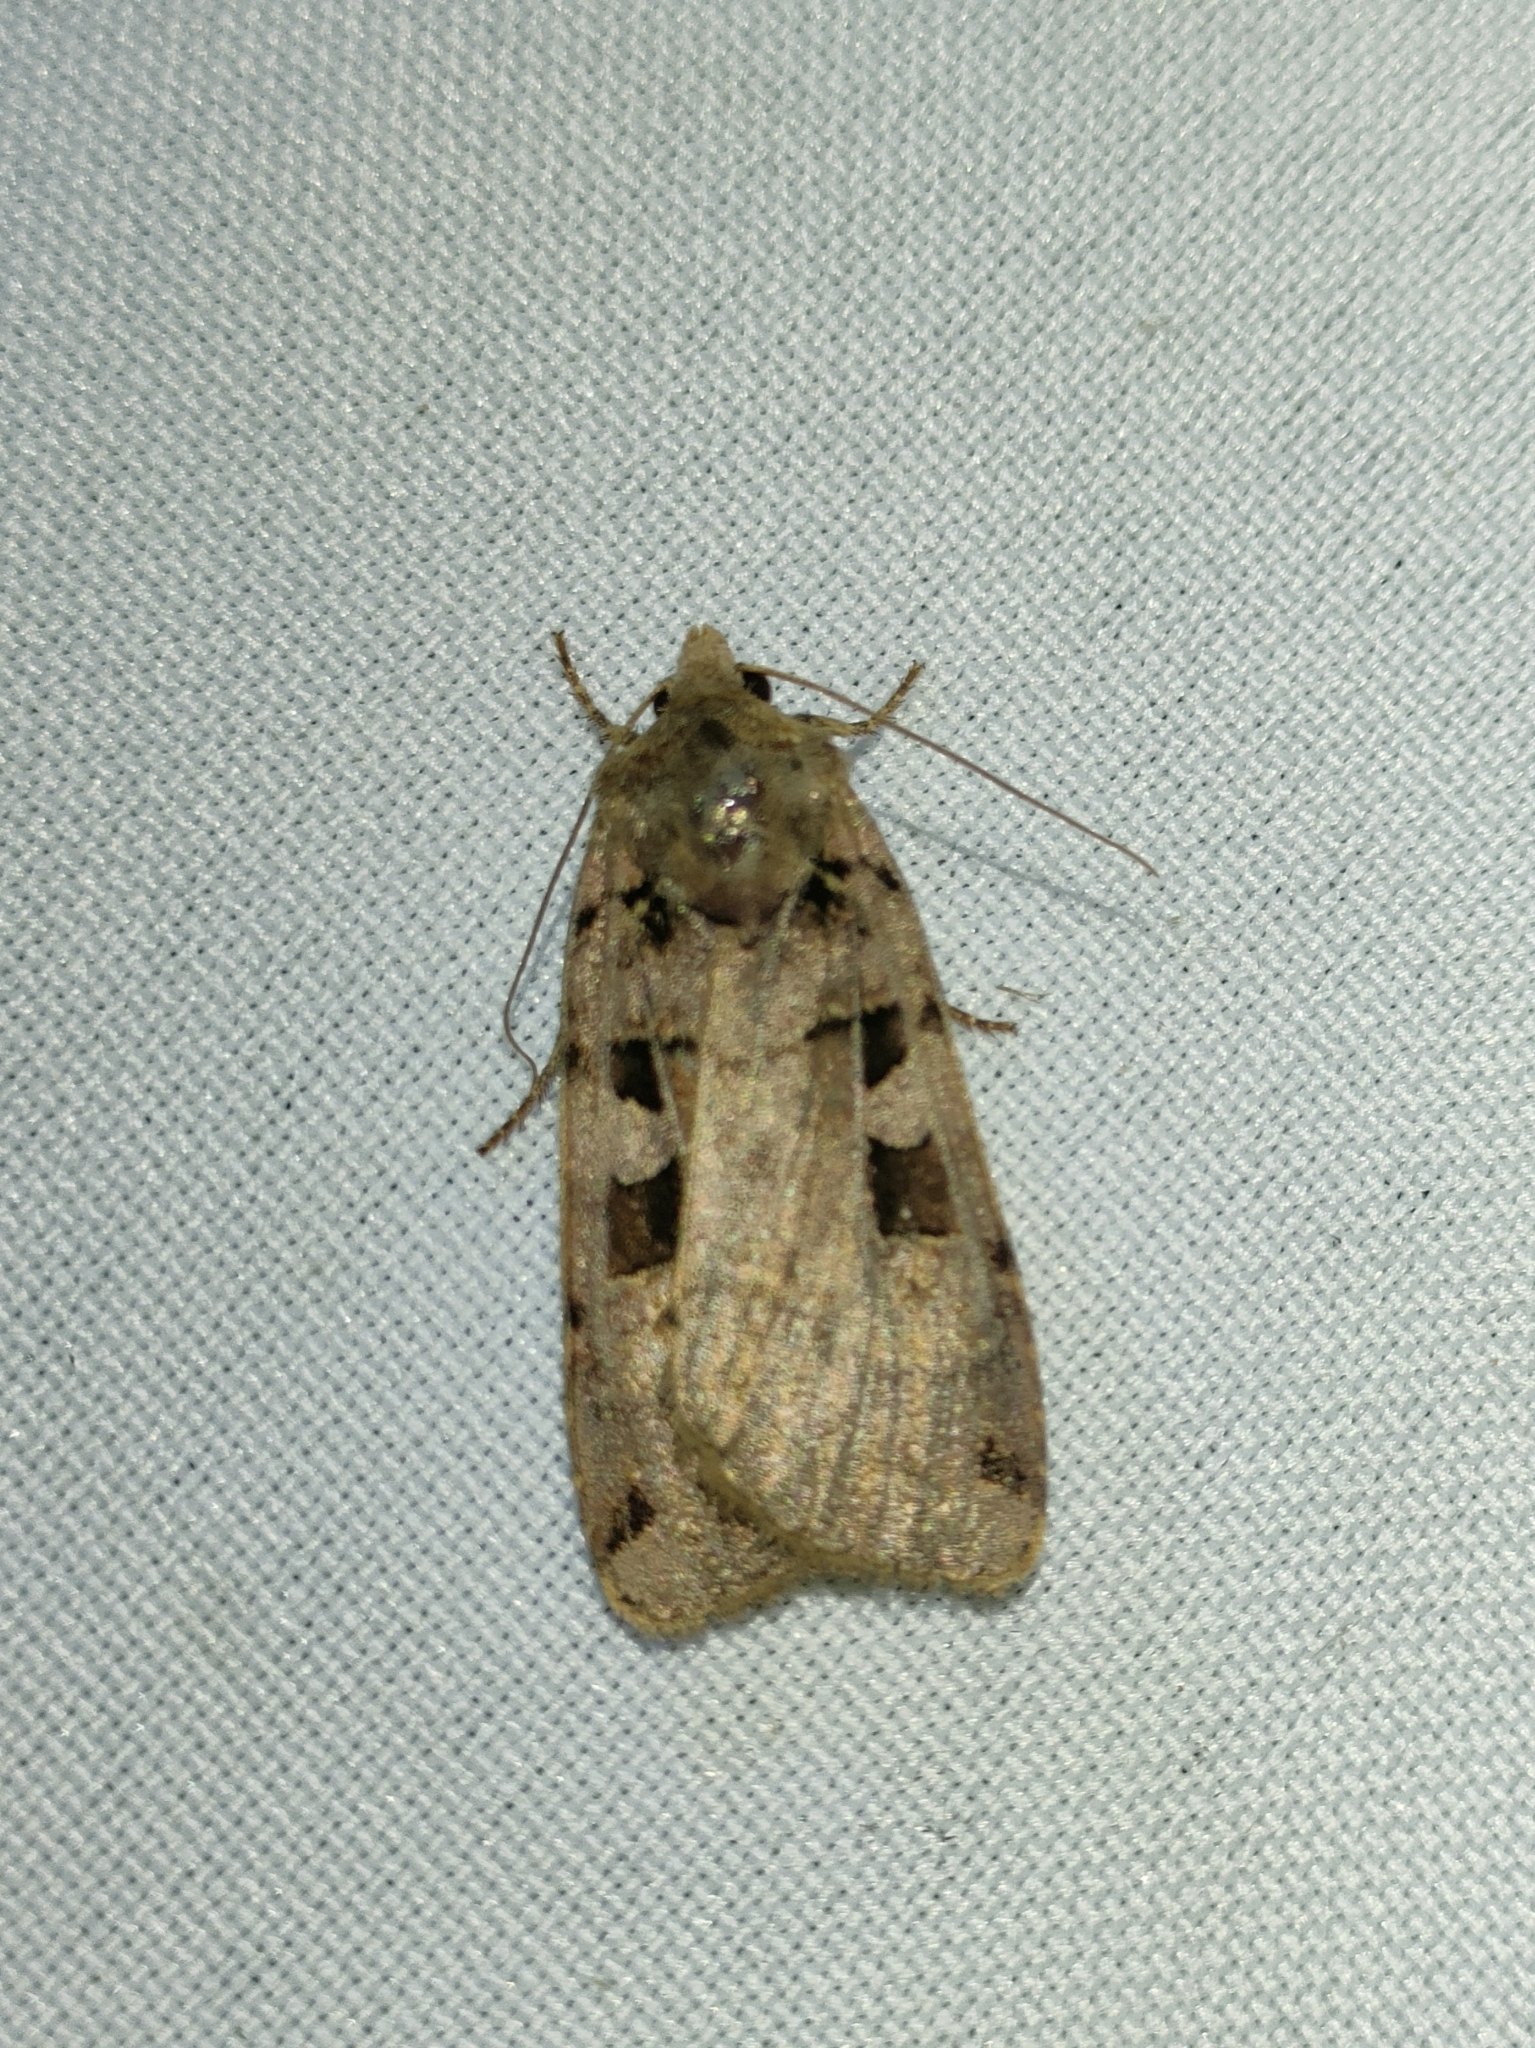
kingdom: Animalia
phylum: Arthropoda
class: Insecta
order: Lepidoptera
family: Noctuidae
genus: Xestia
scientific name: Xestia triangulum
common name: Double square-spot
